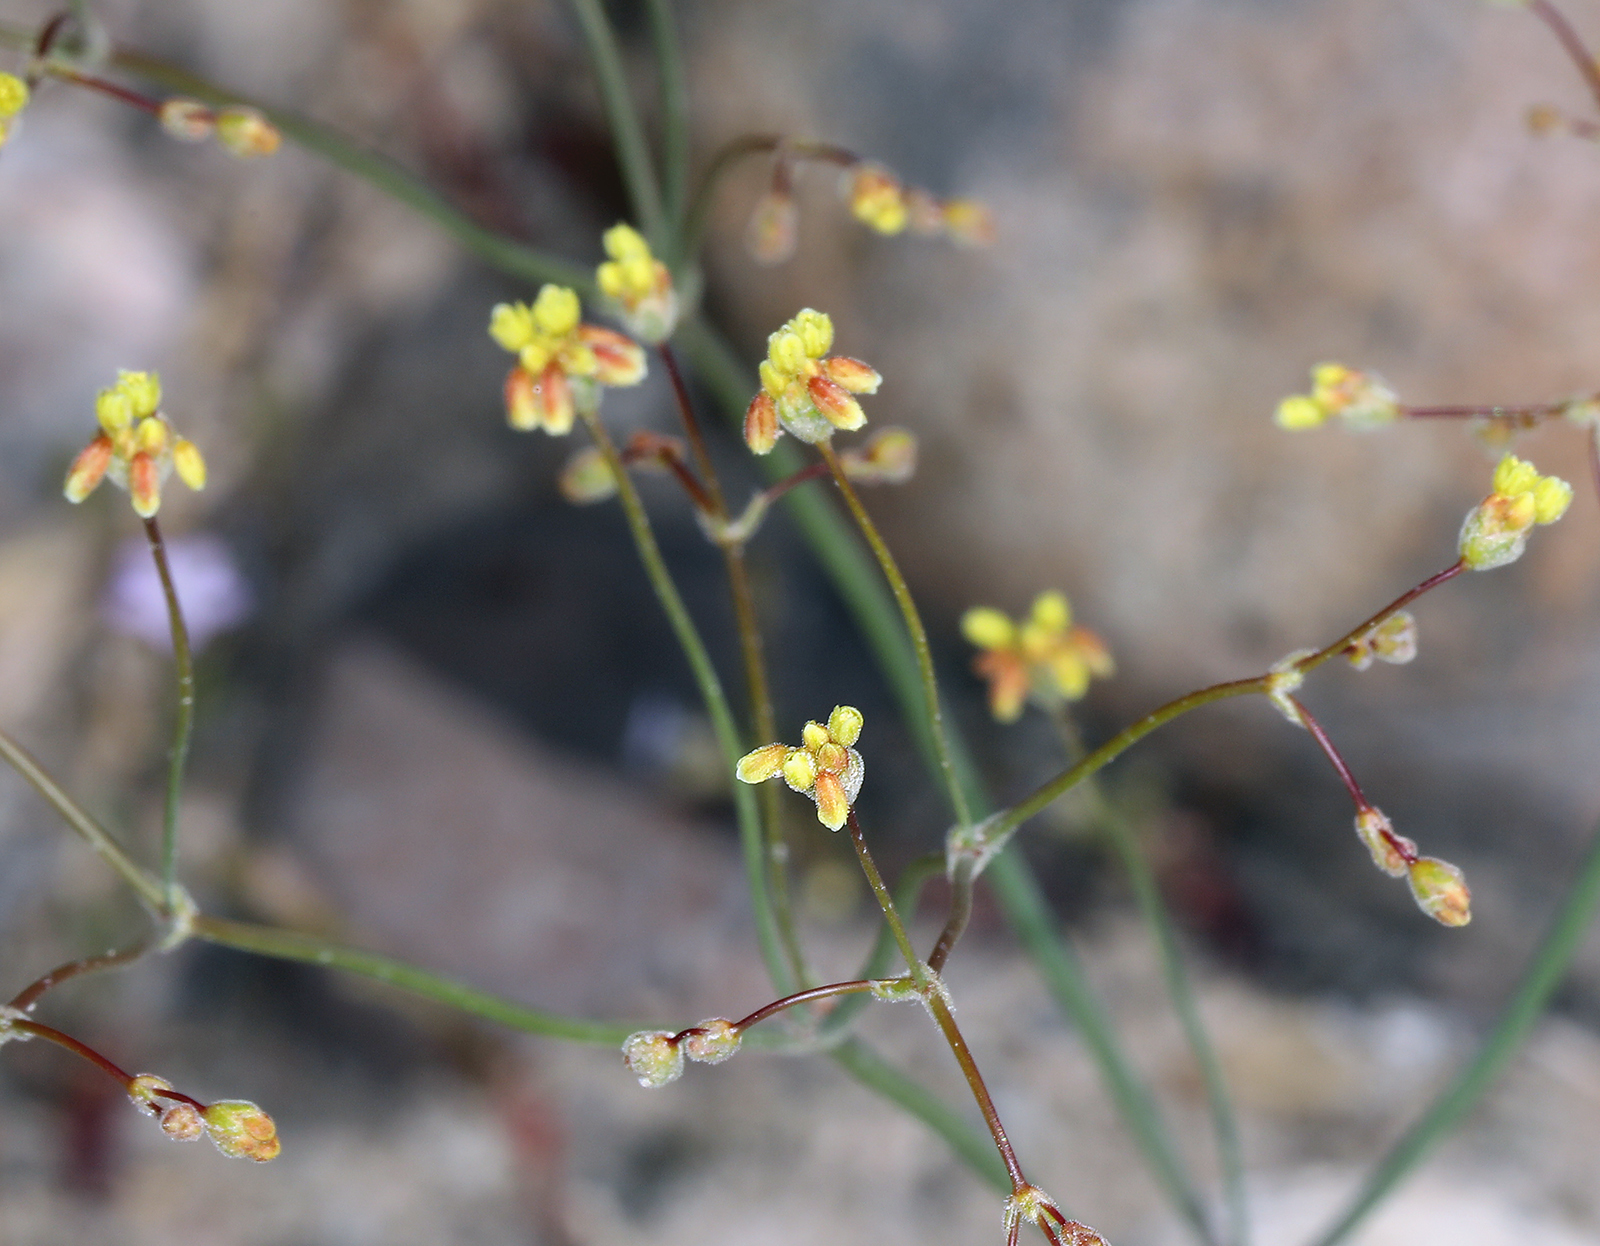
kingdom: Plantae
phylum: Tracheophyta
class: Magnoliopsida
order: Caryophyllales
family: Polygonaceae
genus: Eriogonum
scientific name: Eriogonum pusillum
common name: Yellow turbans
